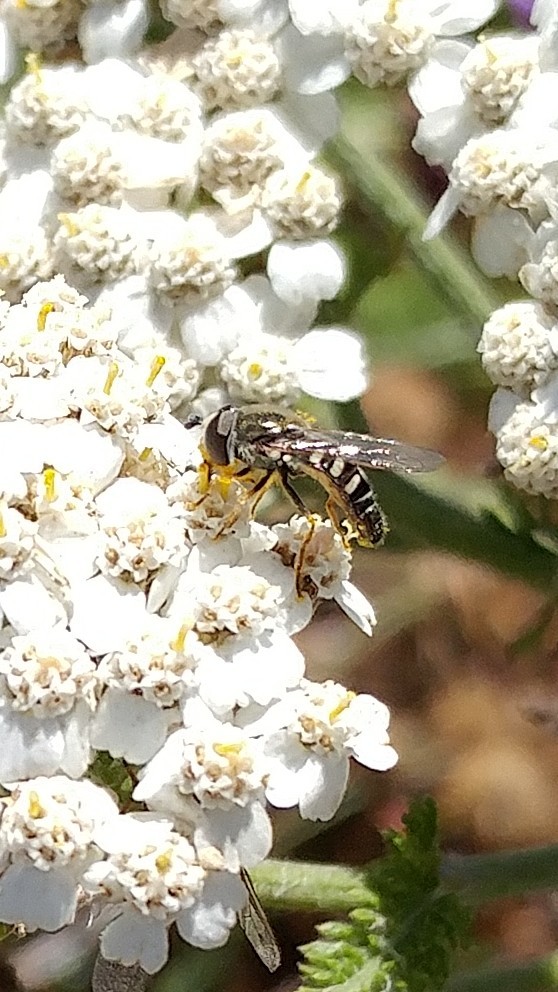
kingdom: Animalia
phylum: Arthropoda
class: Insecta
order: Diptera
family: Syrphidae
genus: Eupeodes
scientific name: Eupeodes volucris
